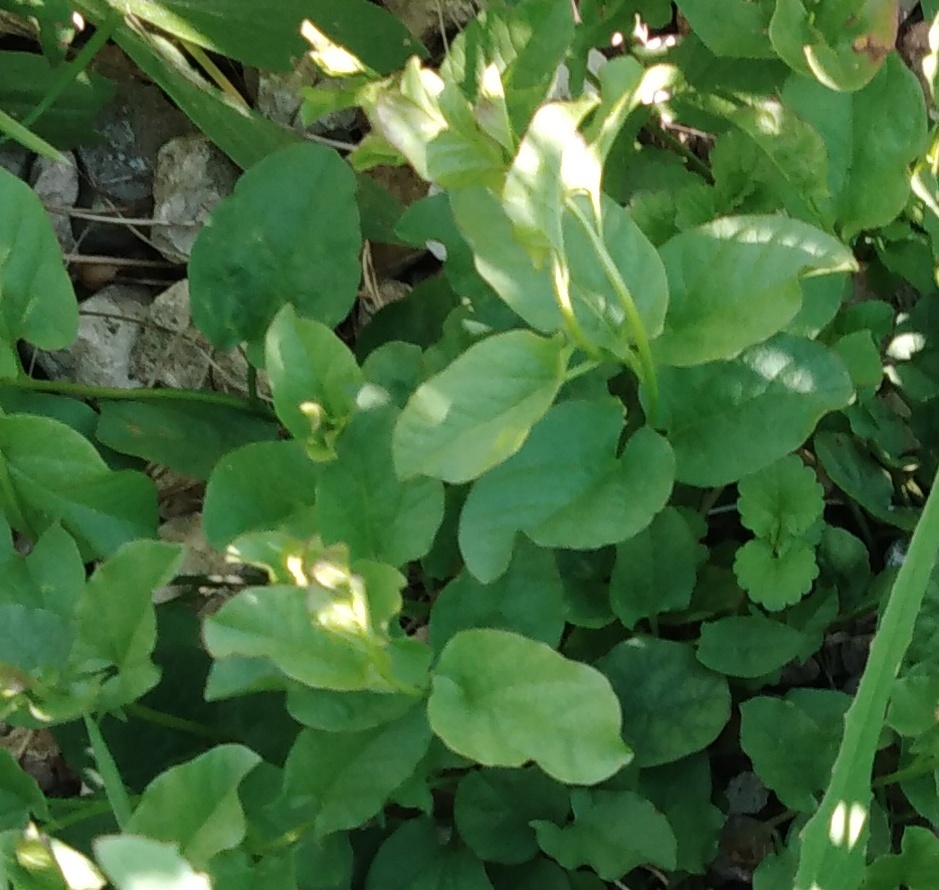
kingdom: Plantae
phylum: Tracheophyta
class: Magnoliopsida
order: Solanales
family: Convolvulaceae
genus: Convolvulus
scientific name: Convolvulus arvensis
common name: Field bindweed
